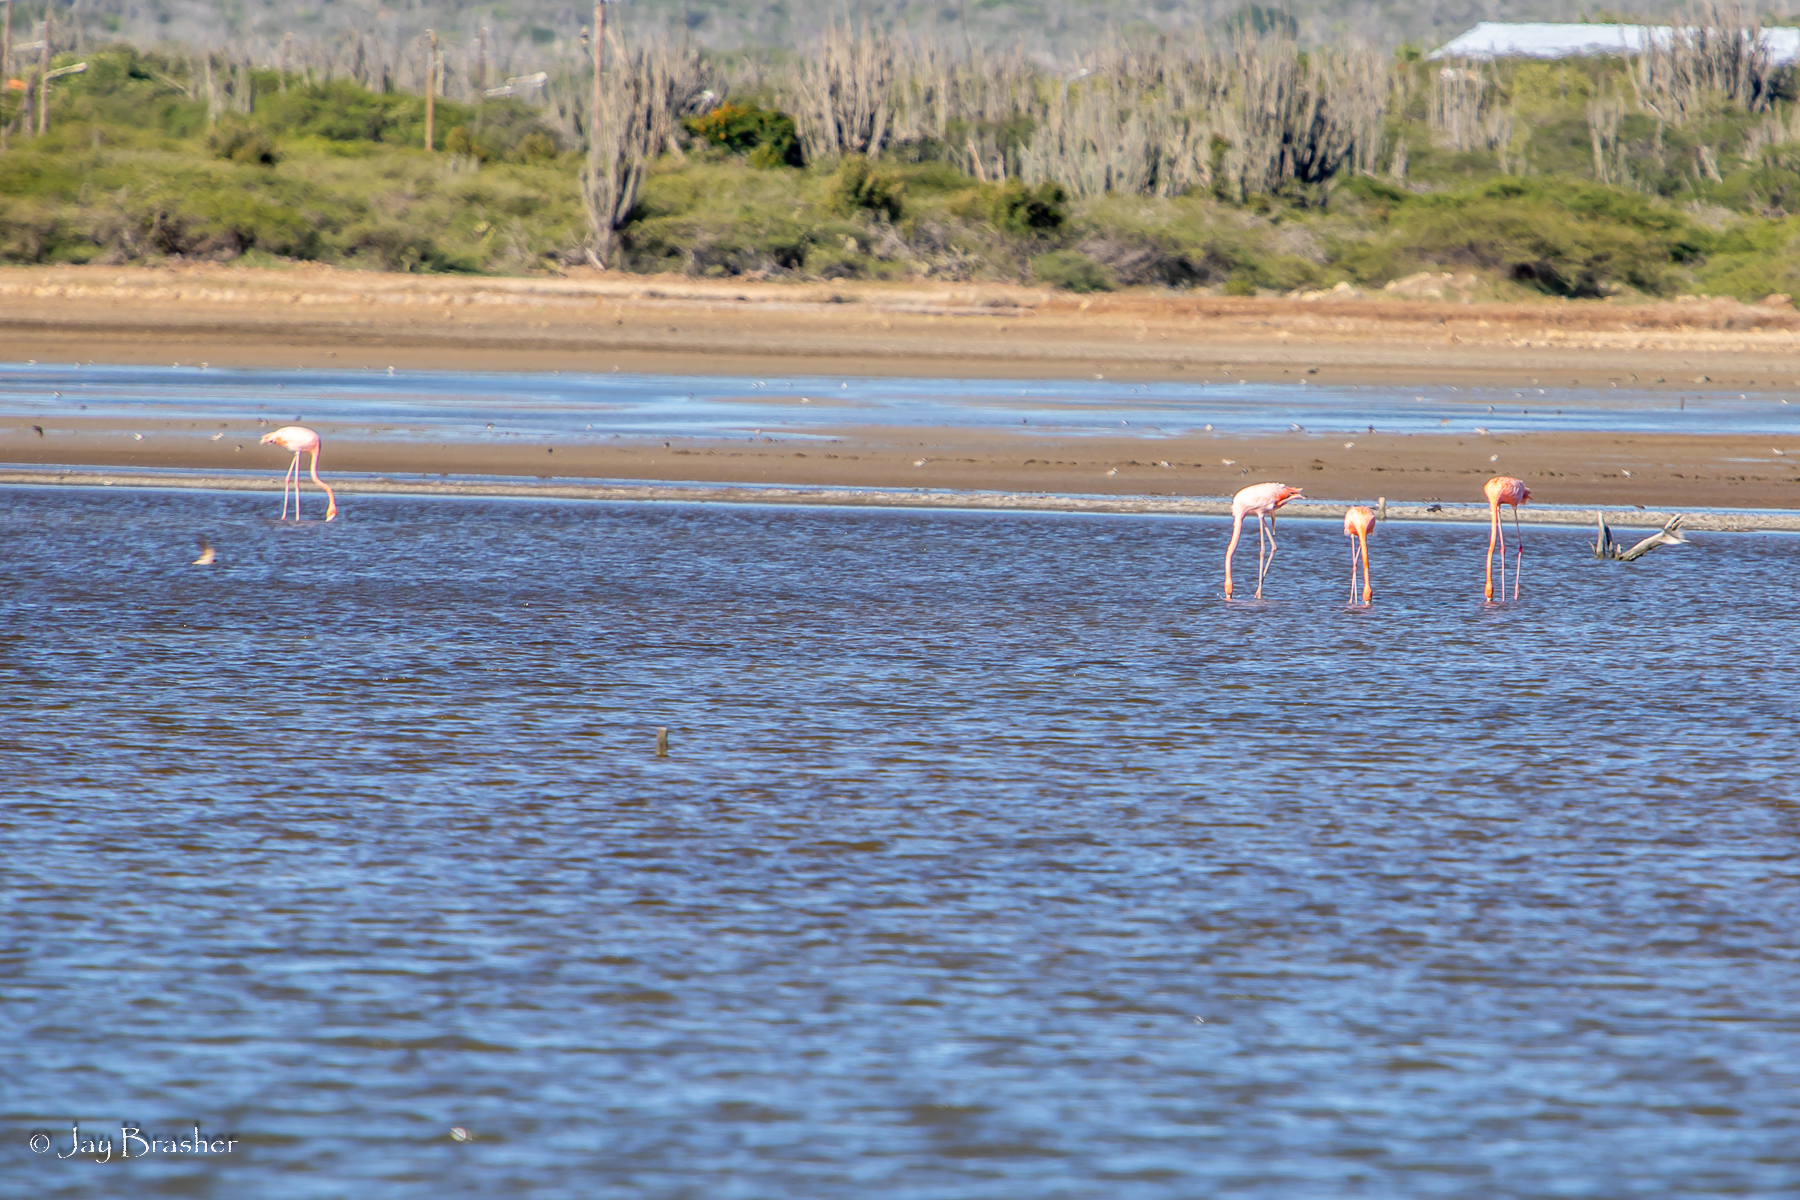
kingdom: Animalia
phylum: Chordata
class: Aves
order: Phoenicopteriformes
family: Phoenicopteridae
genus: Phoenicopterus
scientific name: Phoenicopterus ruber
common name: American flamingo
